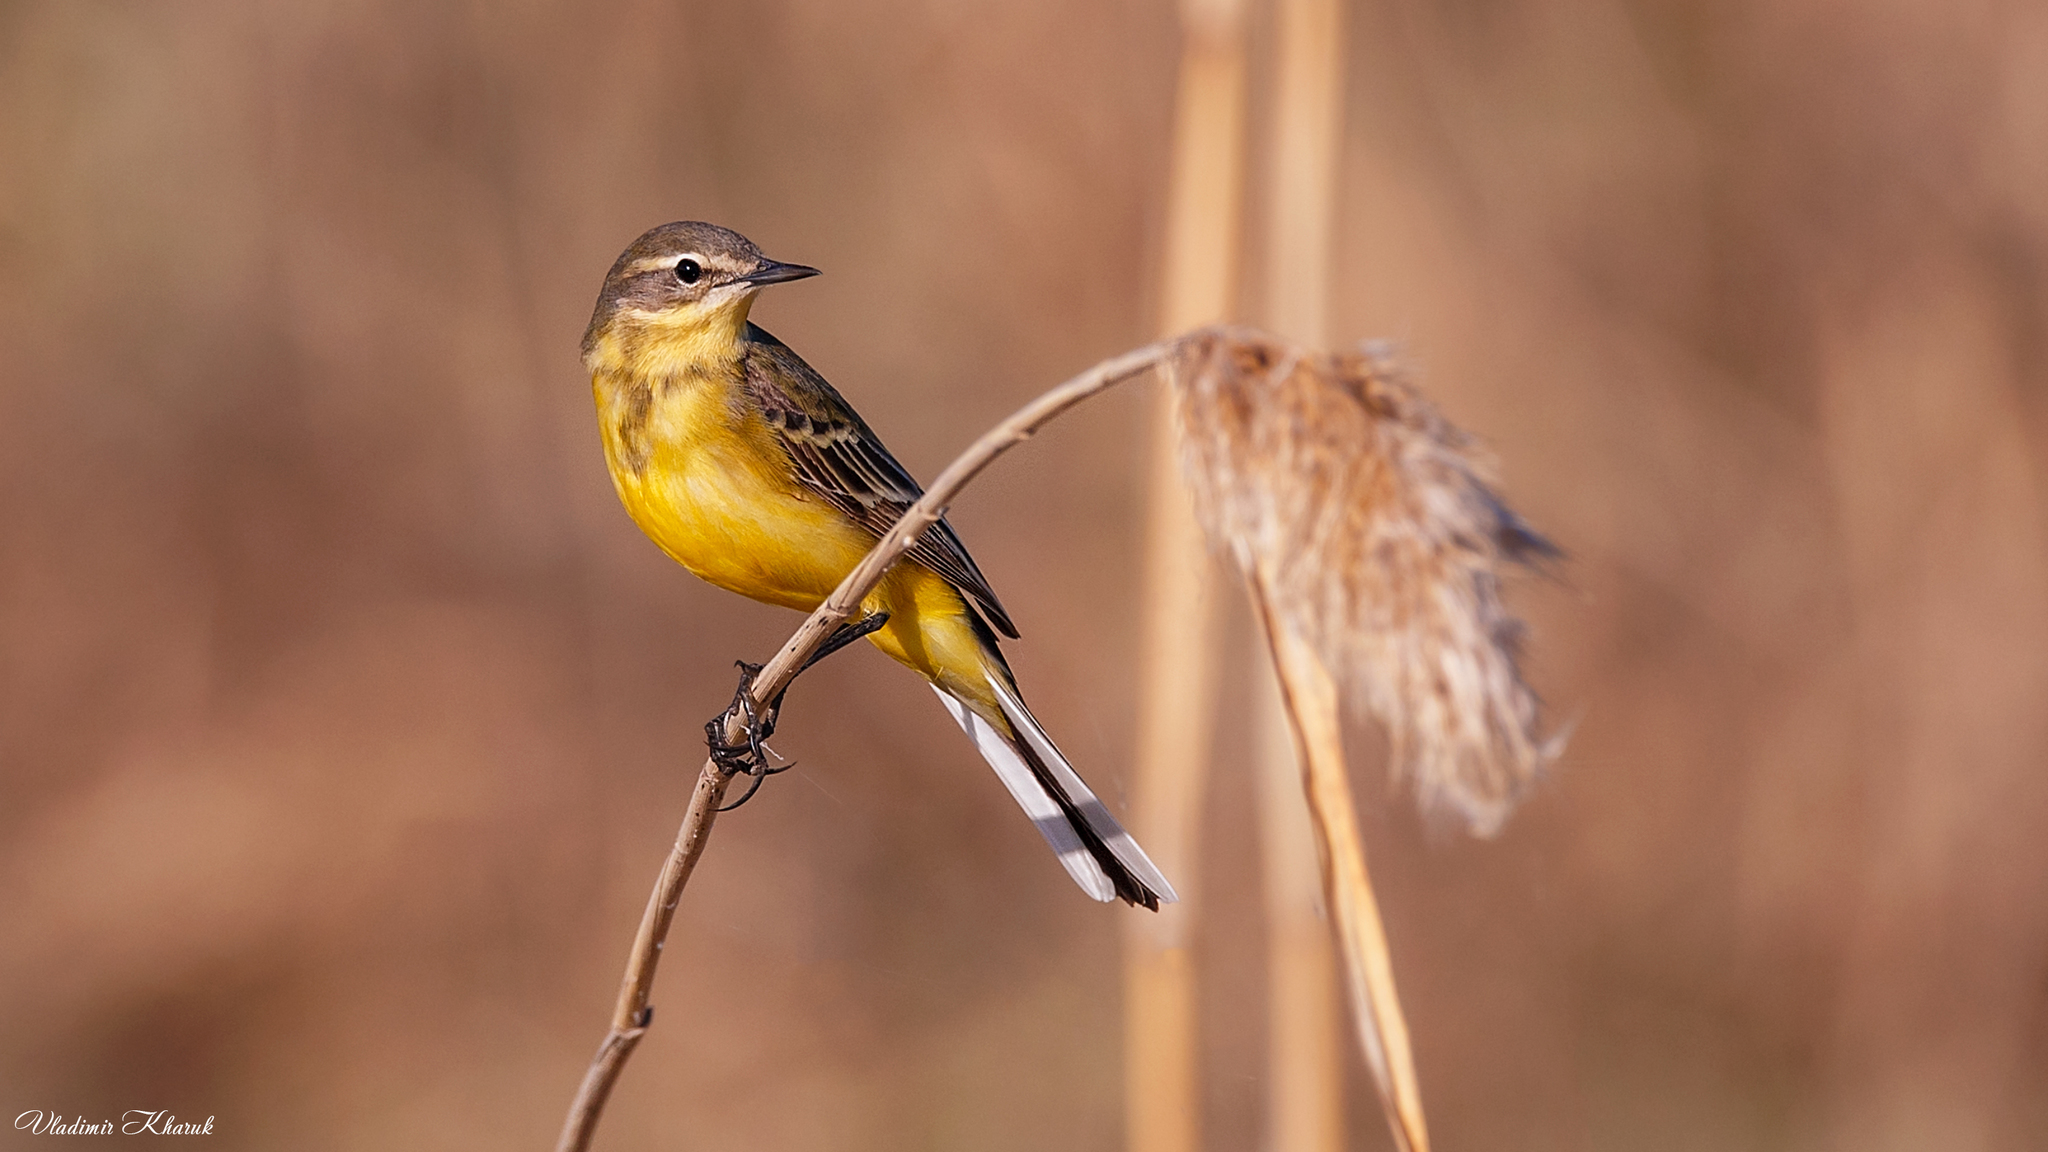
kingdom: Animalia
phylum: Chordata
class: Aves
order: Passeriformes
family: Motacillidae
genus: Motacilla
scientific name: Motacilla flava
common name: Western yellow wagtail
